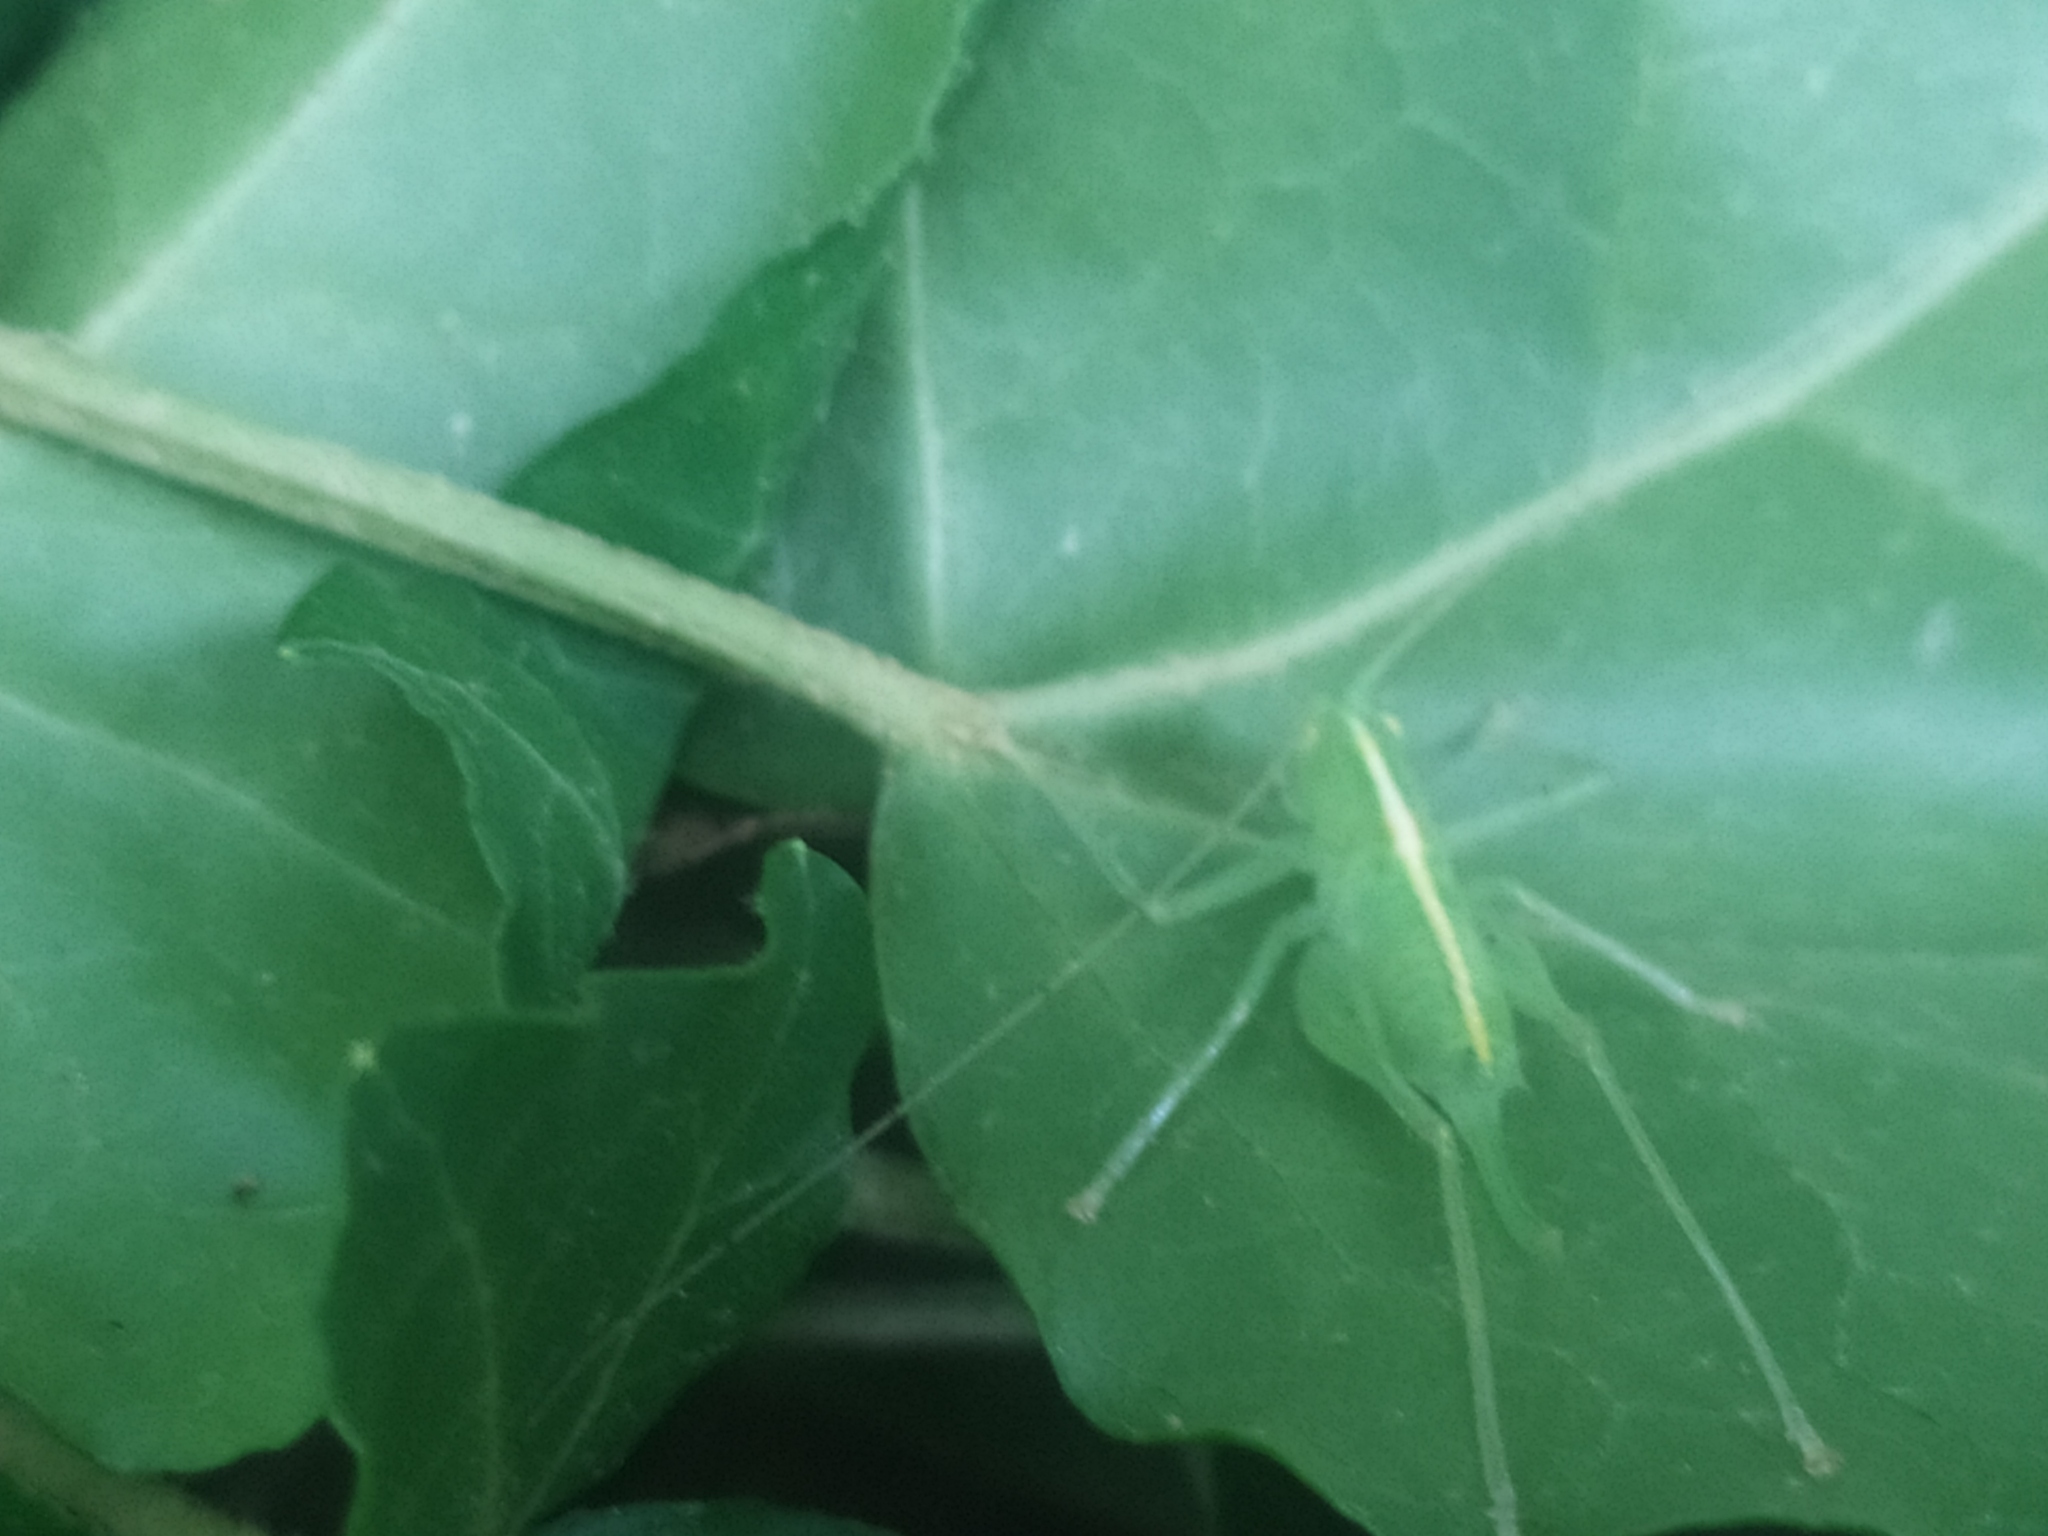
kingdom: Animalia
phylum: Arthropoda
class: Insecta
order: Orthoptera
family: Tettigoniidae
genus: Meconema
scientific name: Meconema meridionale
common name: Southern oak bush-cricket
